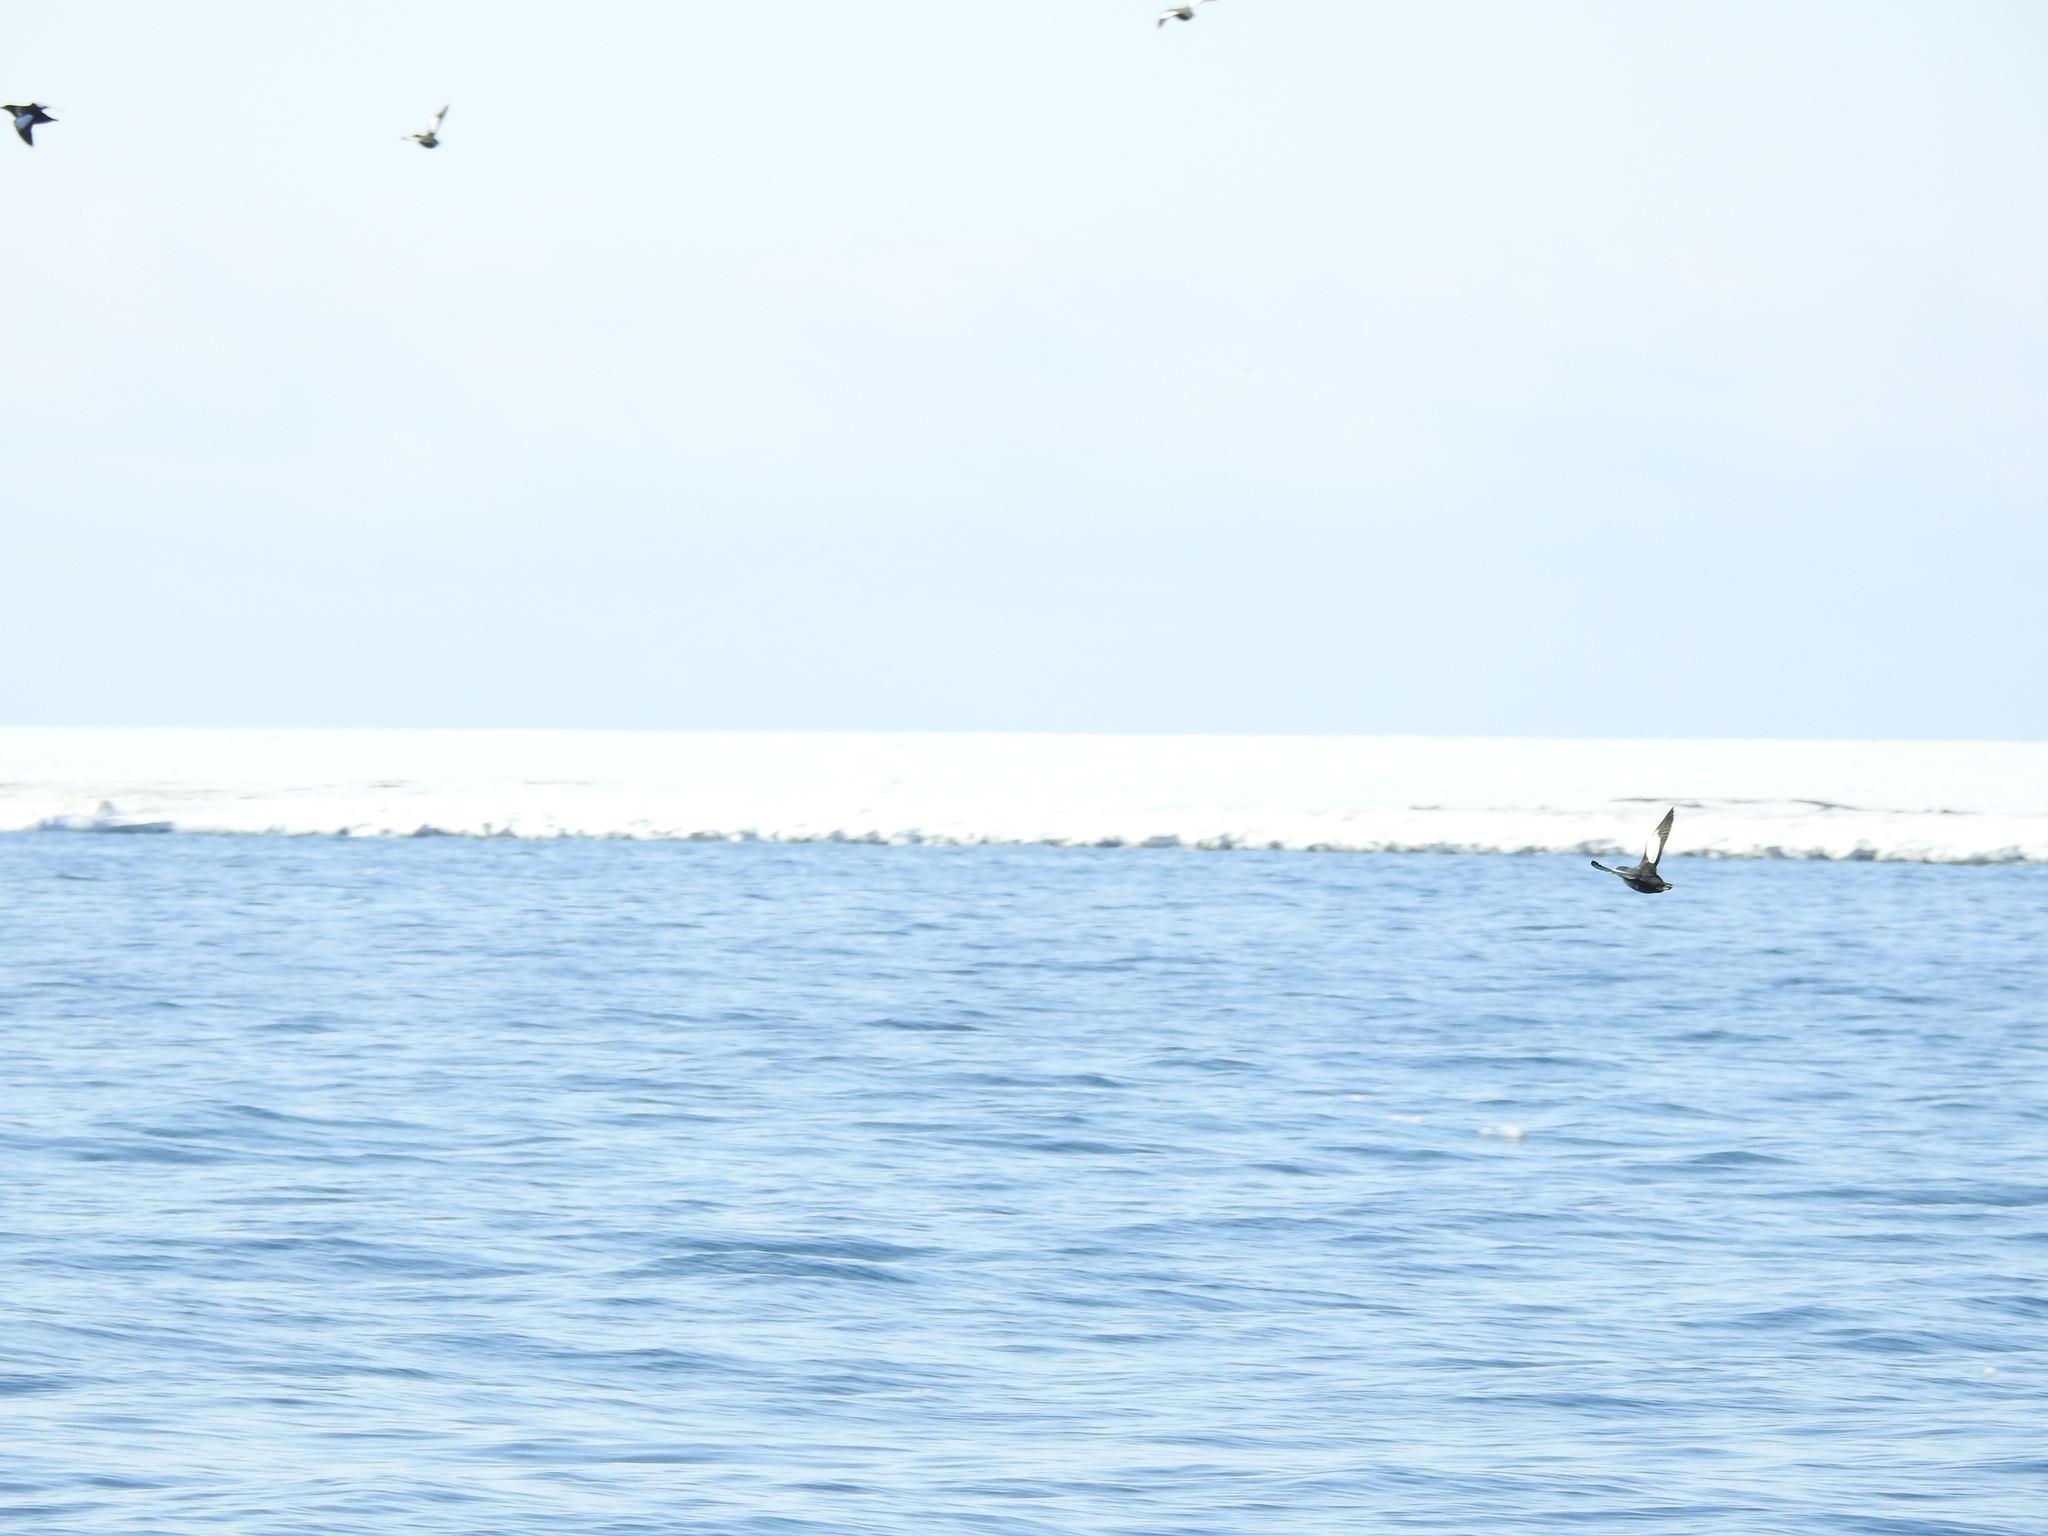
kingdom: Animalia
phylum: Chordata
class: Aves
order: Charadriiformes
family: Alcidae
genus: Cepphus
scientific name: Cepphus grylle
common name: Black guillemot
